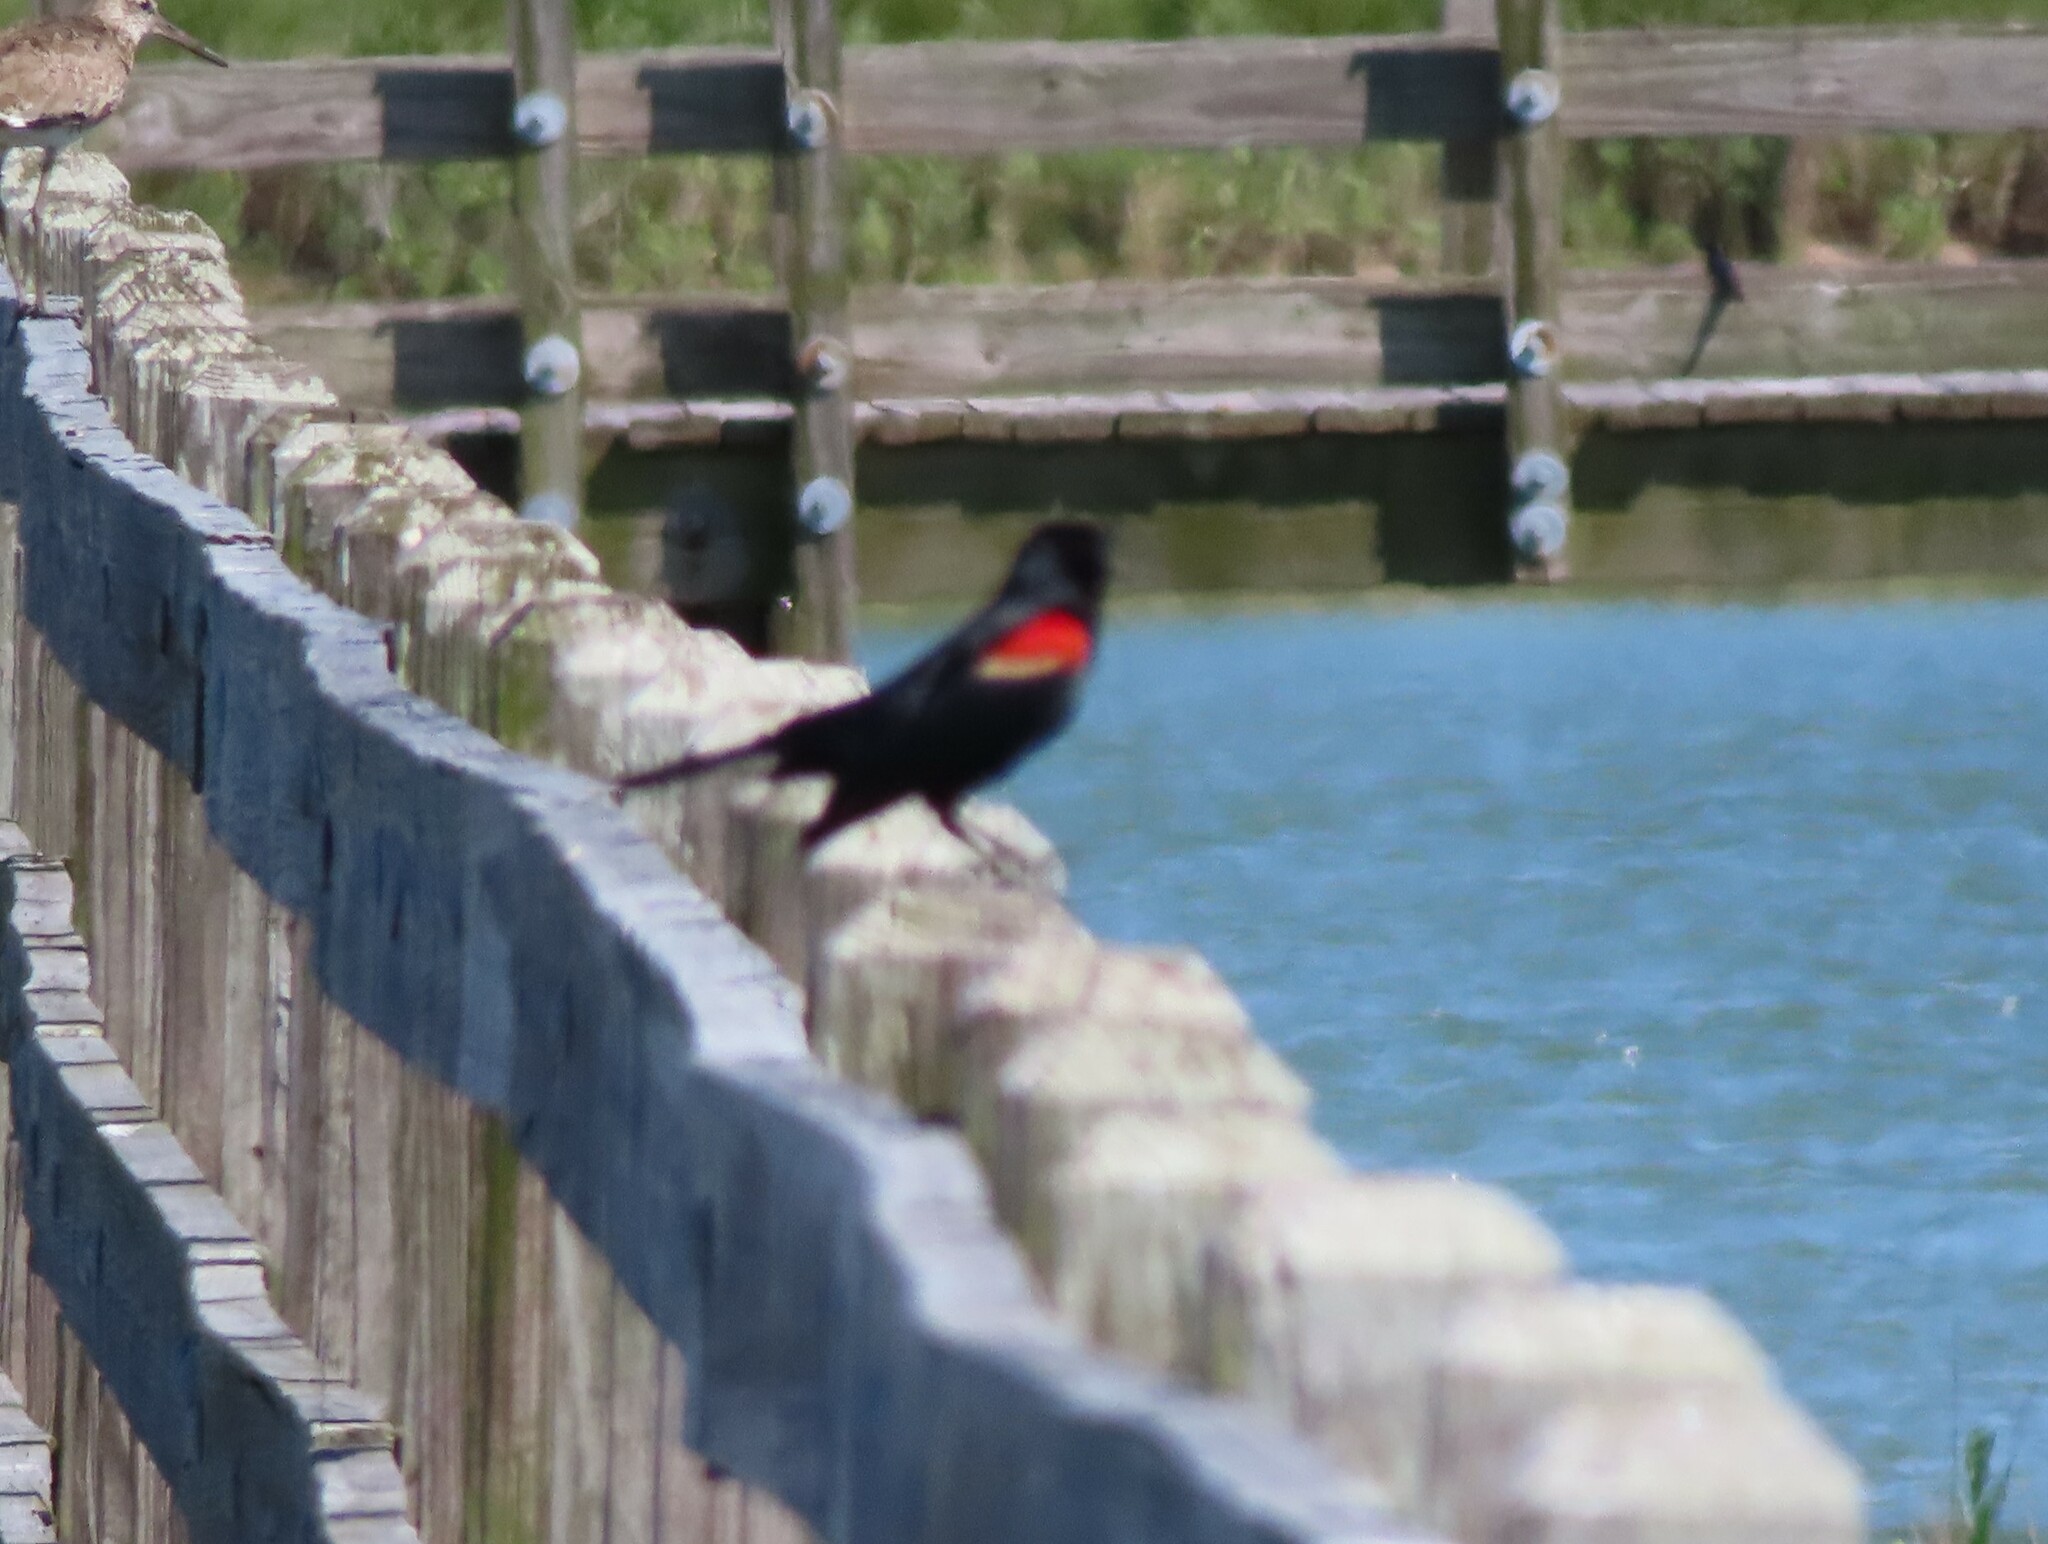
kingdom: Animalia
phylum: Chordata
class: Aves
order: Passeriformes
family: Icteridae
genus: Agelaius
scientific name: Agelaius phoeniceus
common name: Red-winged blackbird
